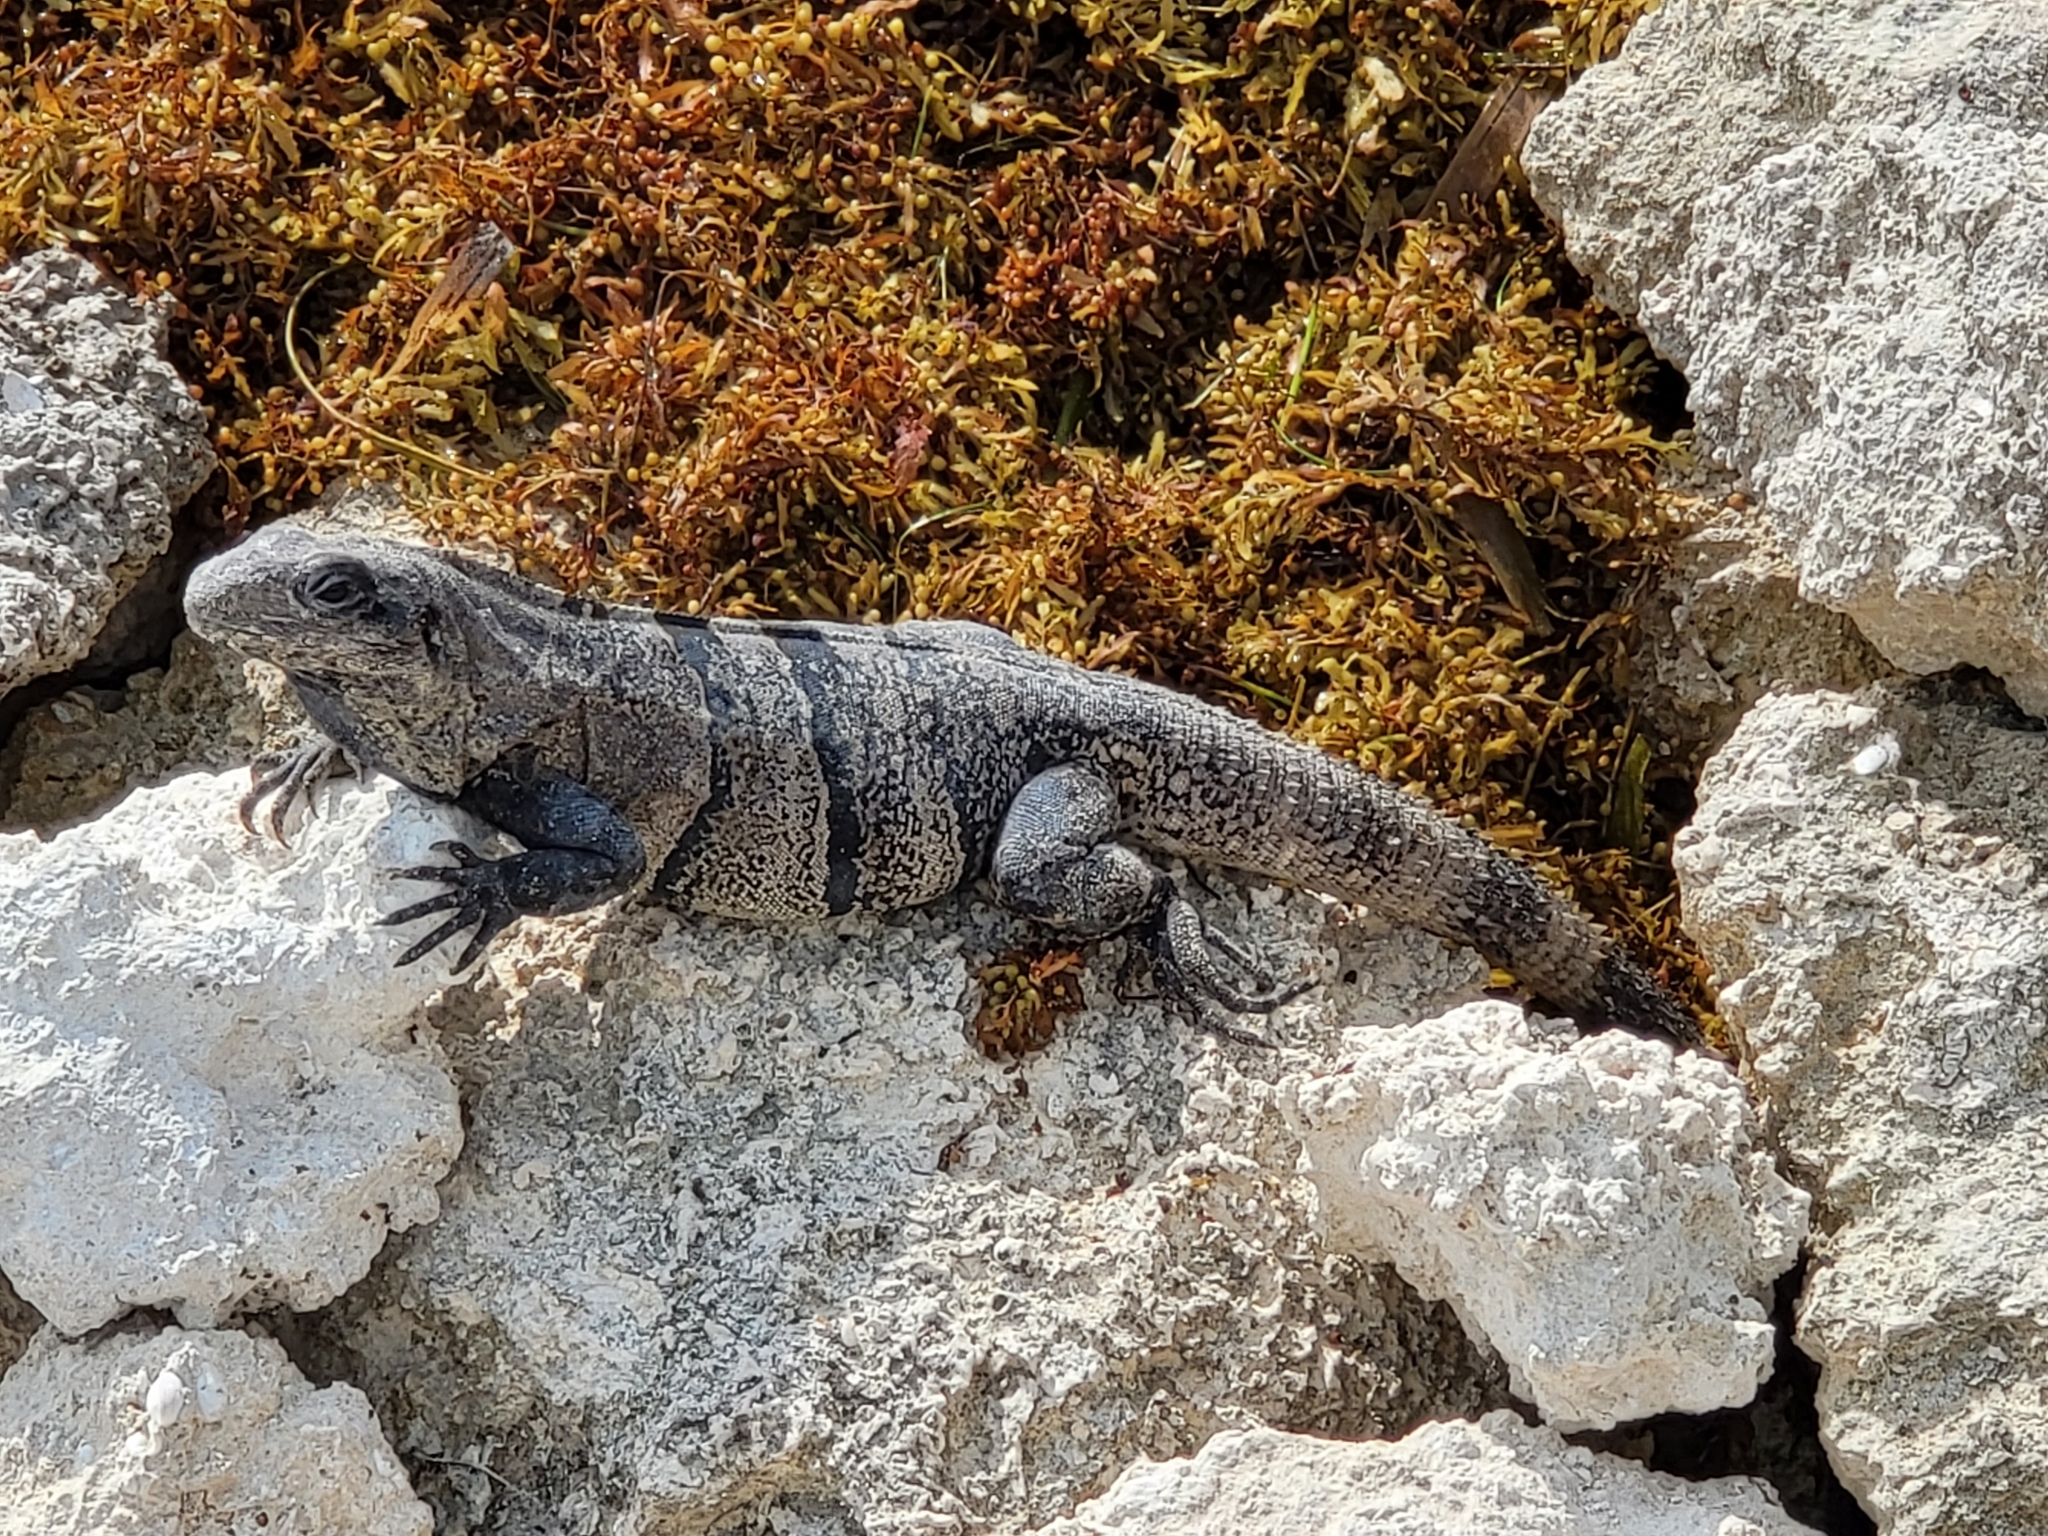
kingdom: Animalia
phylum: Chordata
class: Squamata
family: Iguanidae
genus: Ctenosaura
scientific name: Ctenosaura similis
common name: Black spiny-tailed iguana
